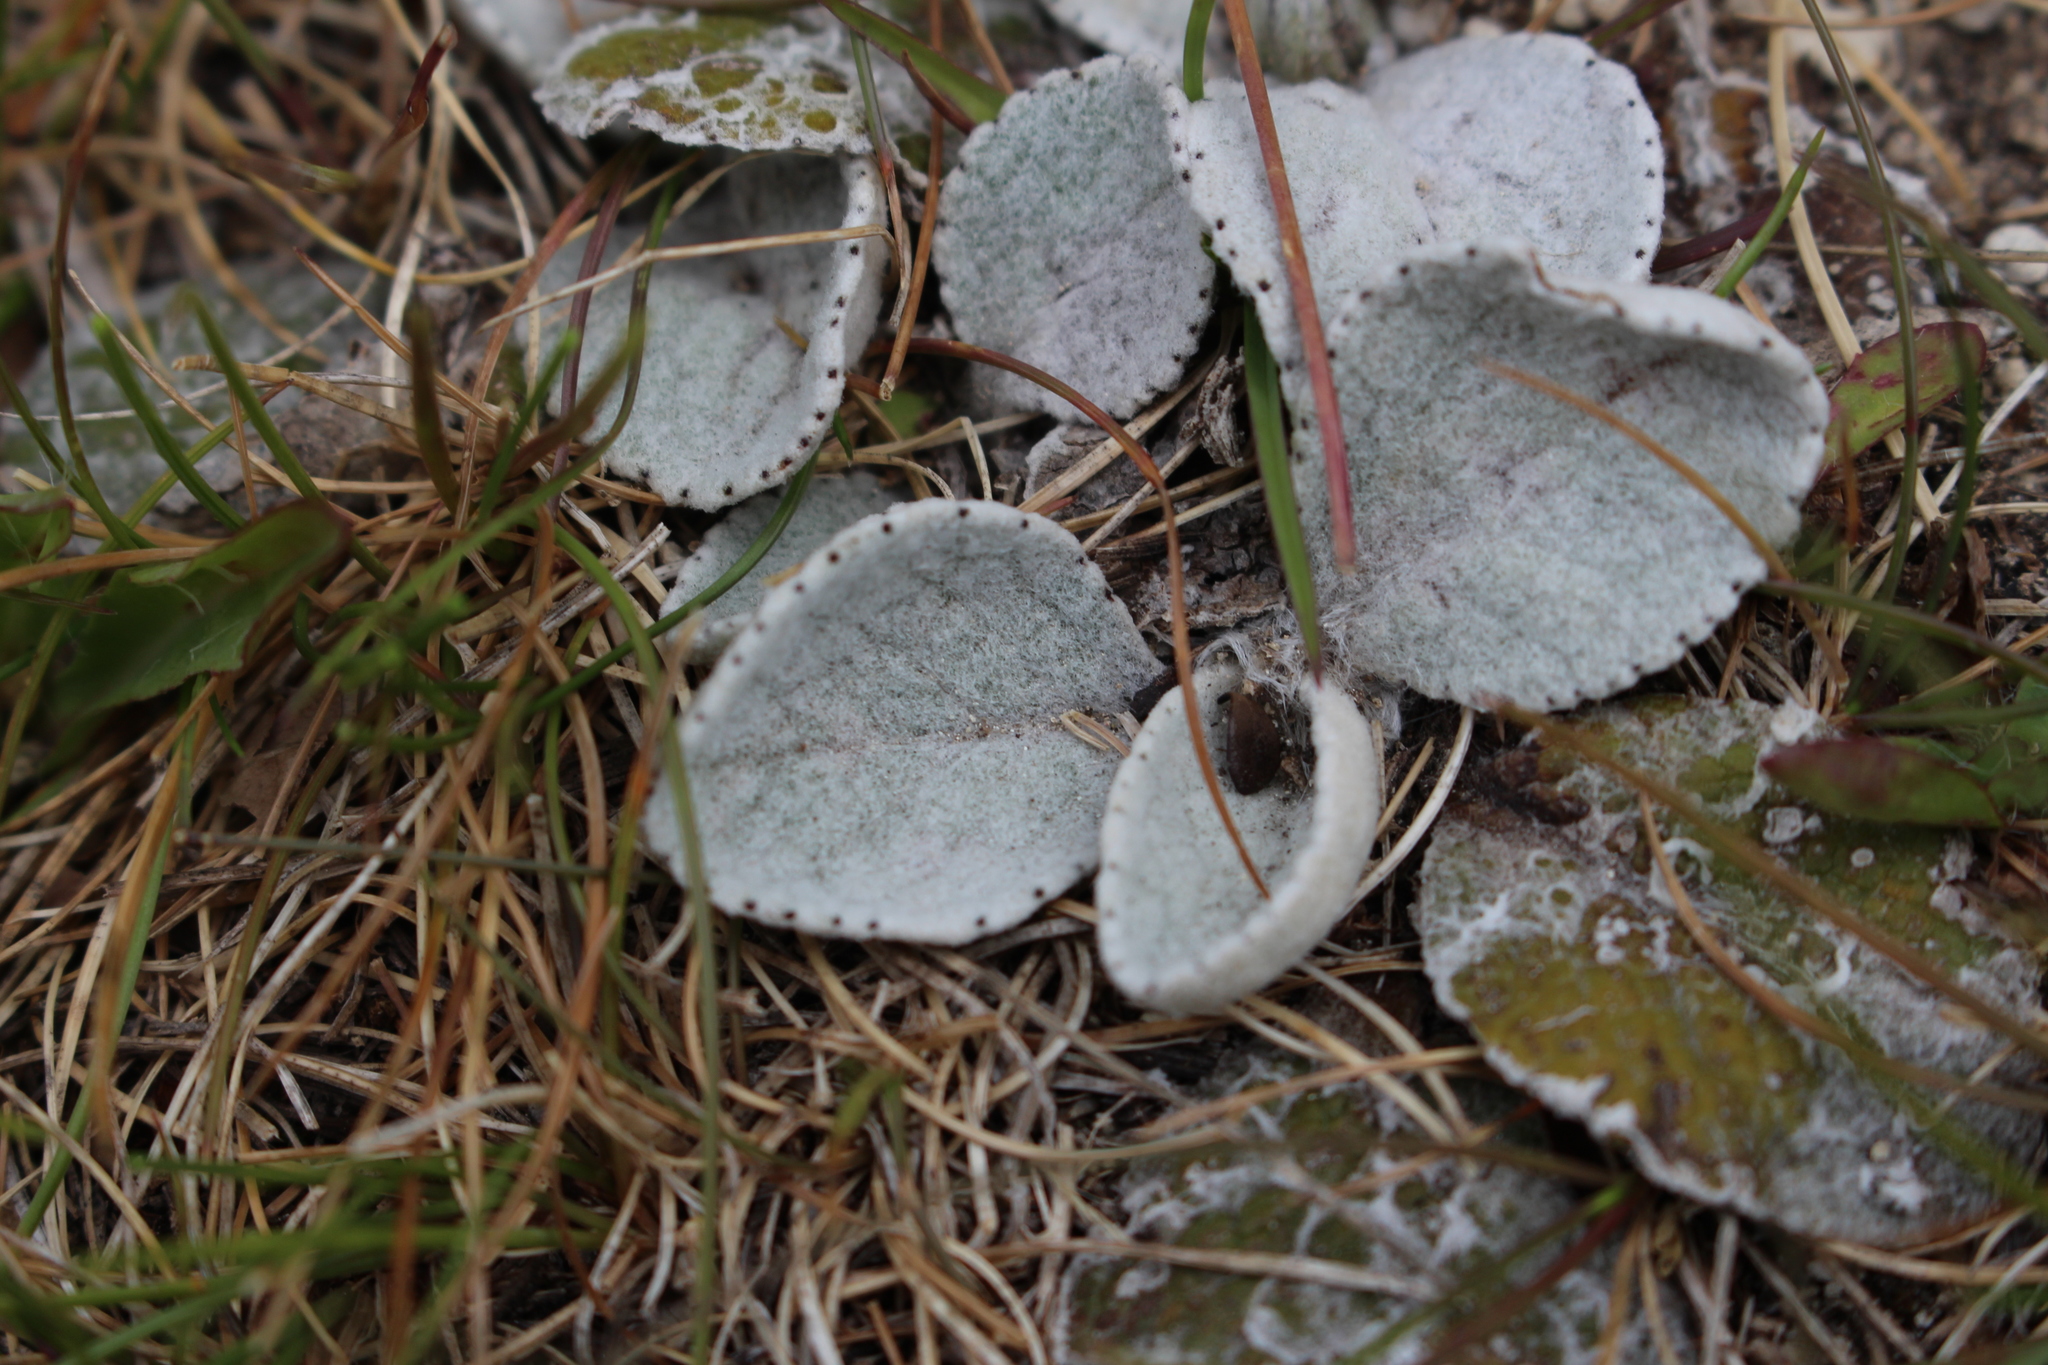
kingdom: Plantae
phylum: Tracheophyta
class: Magnoliopsida
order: Asterales
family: Asteraceae
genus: Brachyglottis
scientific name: Brachyglottis haastii
